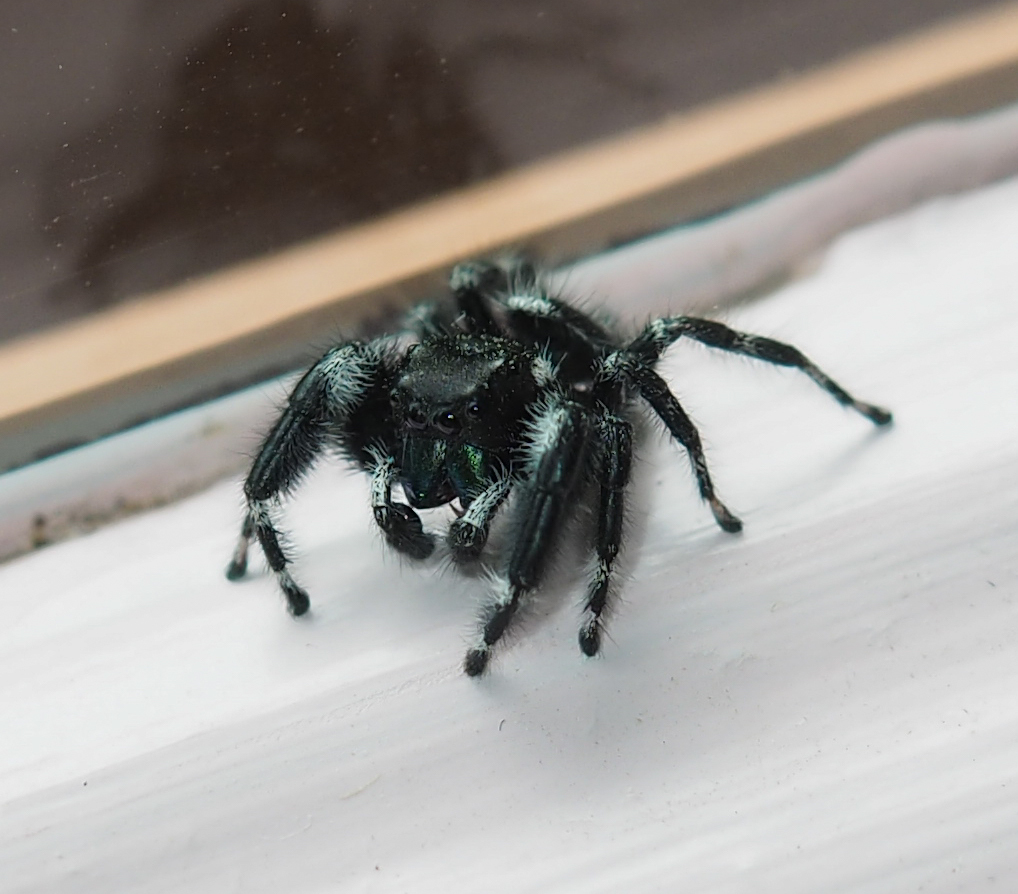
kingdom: Animalia
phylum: Arthropoda
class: Arachnida
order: Araneae
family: Salticidae
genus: Phidippus
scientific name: Phidippus audax
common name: Bold jumper
